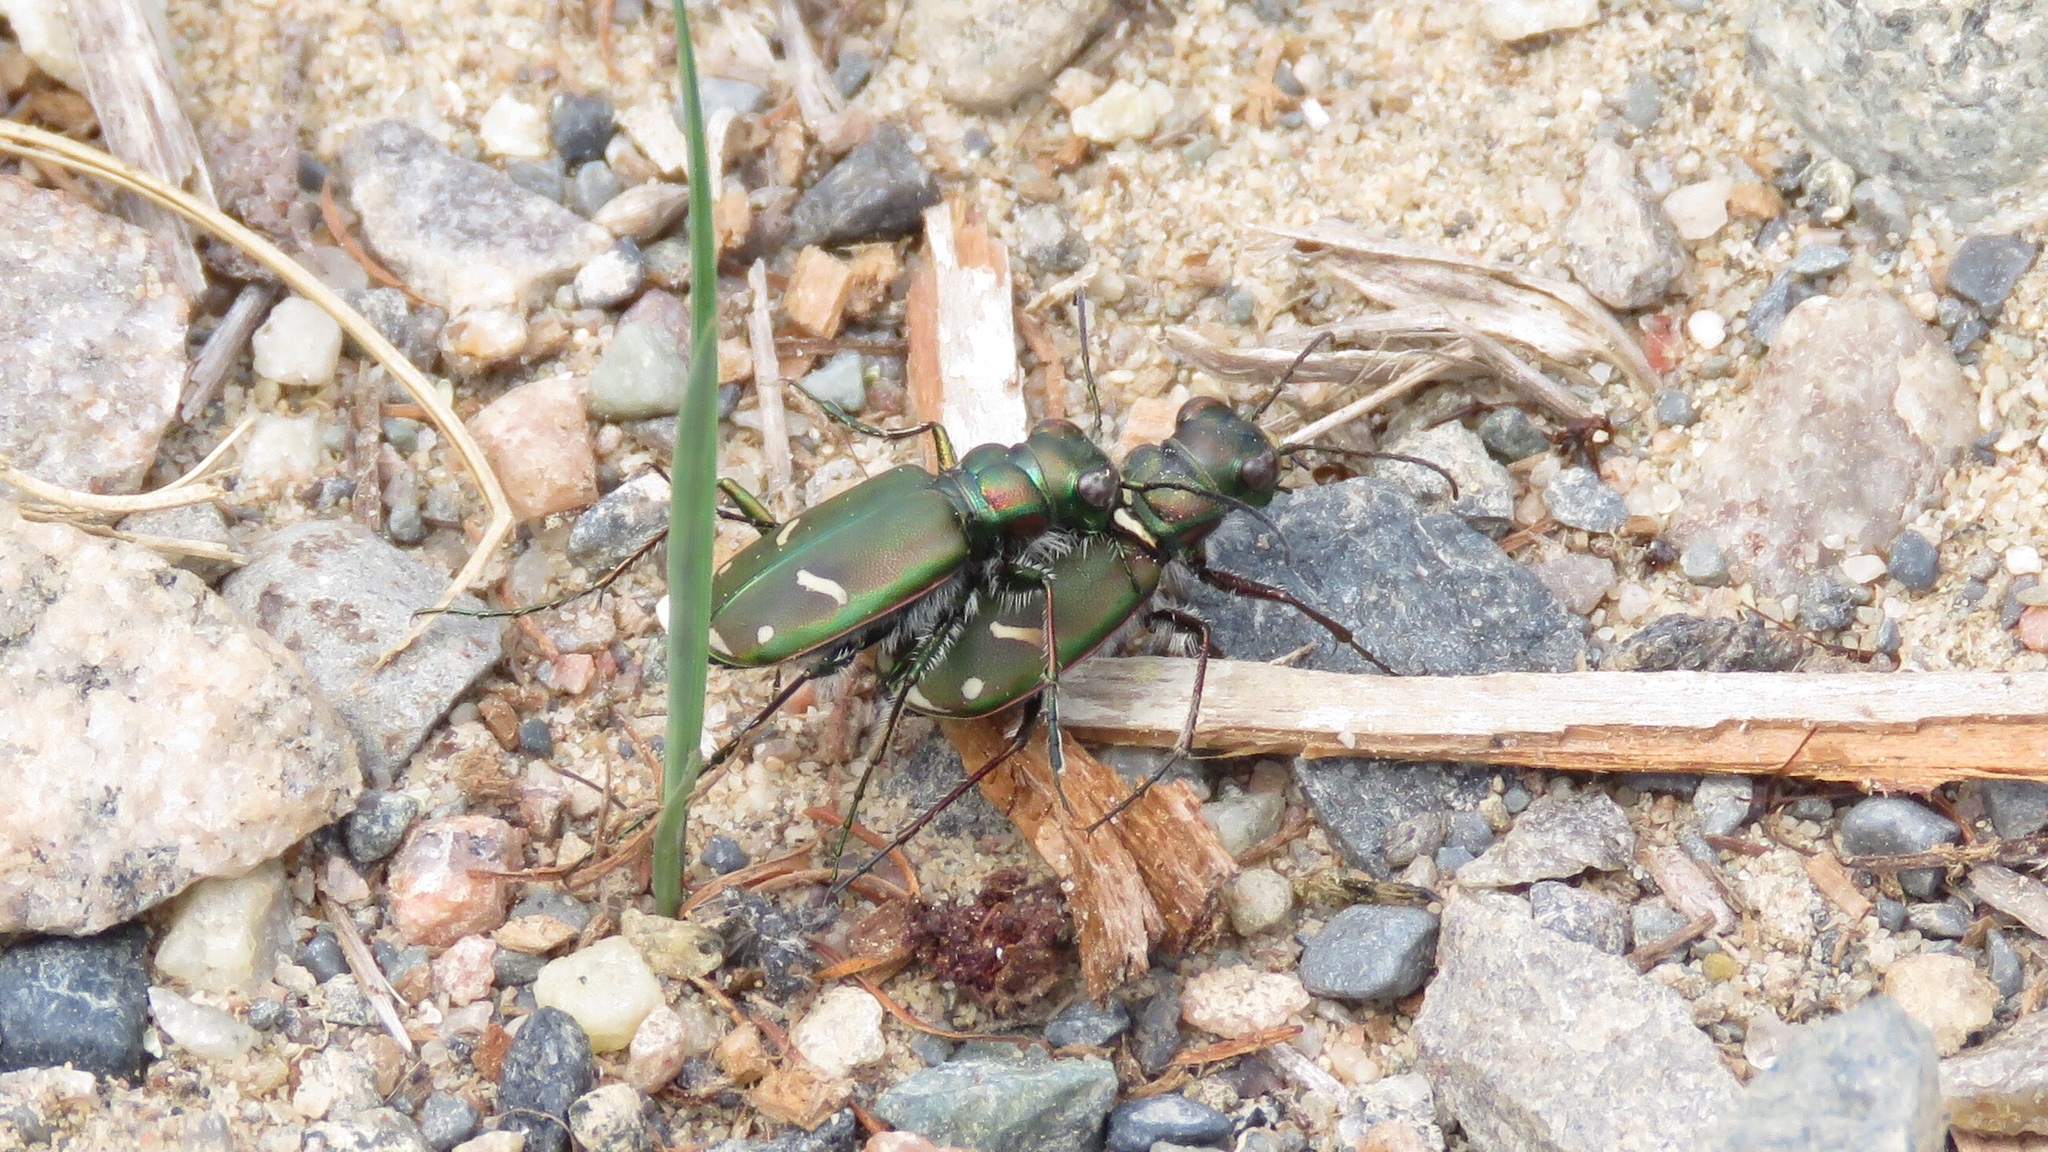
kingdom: Animalia
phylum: Arthropoda
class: Insecta
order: Coleoptera
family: Carabidae
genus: Cicindela
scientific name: Cicindela purpurea
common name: Cow path tiger beetle
